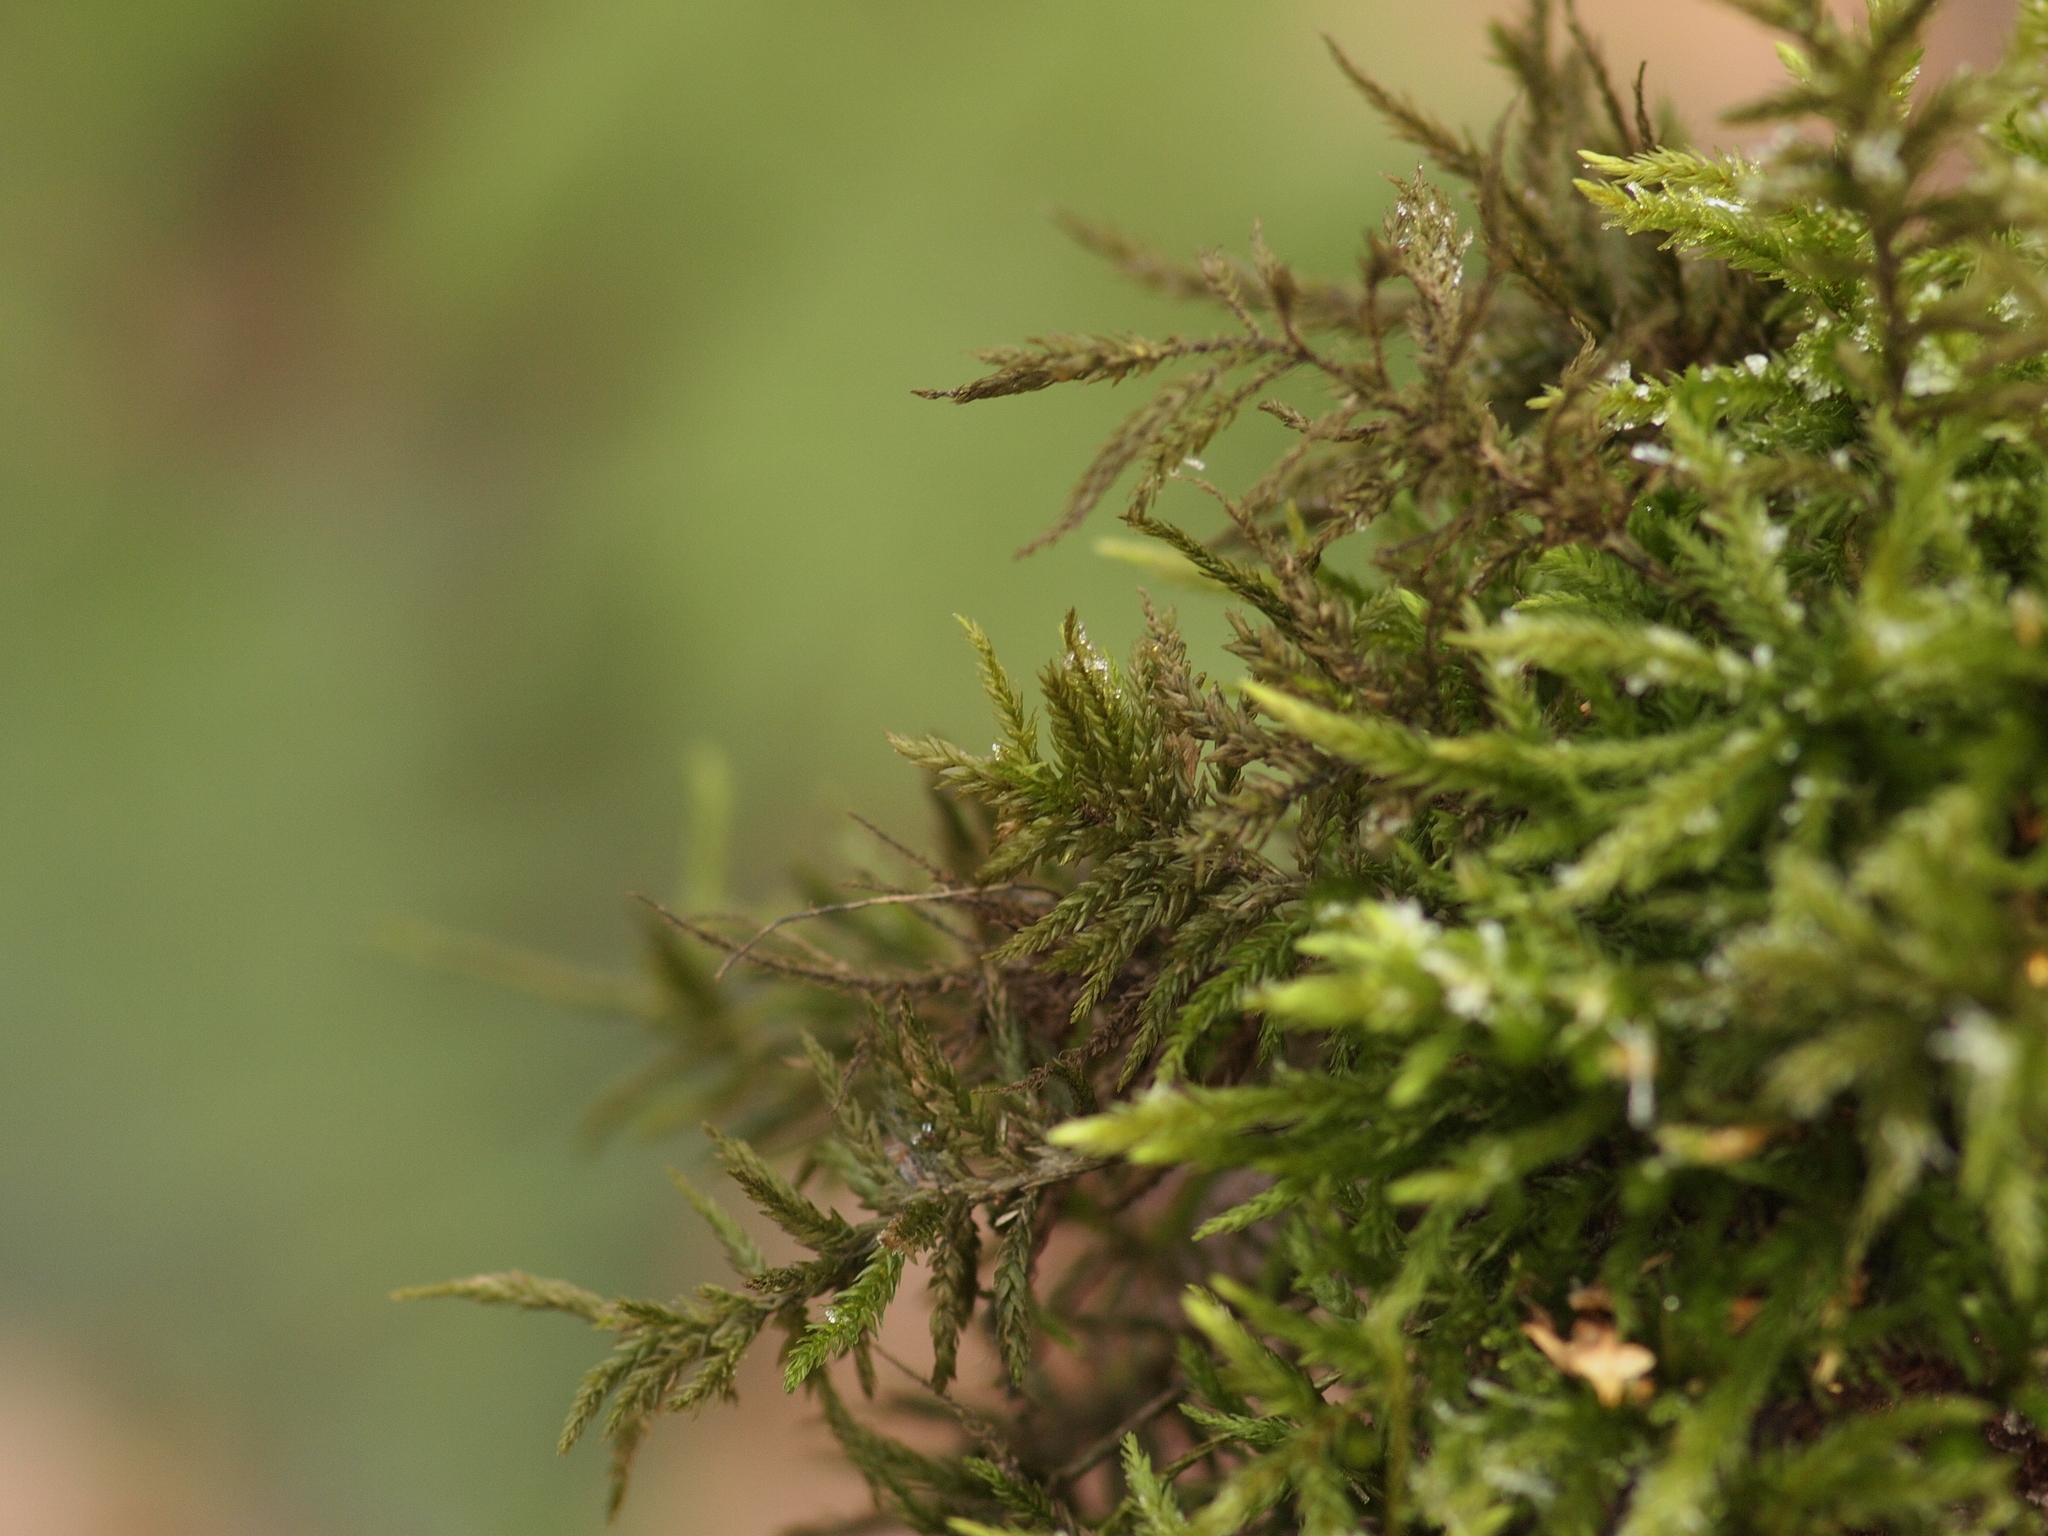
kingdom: Plantae
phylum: Bryophyta
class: Bryopsida
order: Hypnales
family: Climaciaceae
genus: Climacium
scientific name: Climacium dendroides
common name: Northern tree moss
